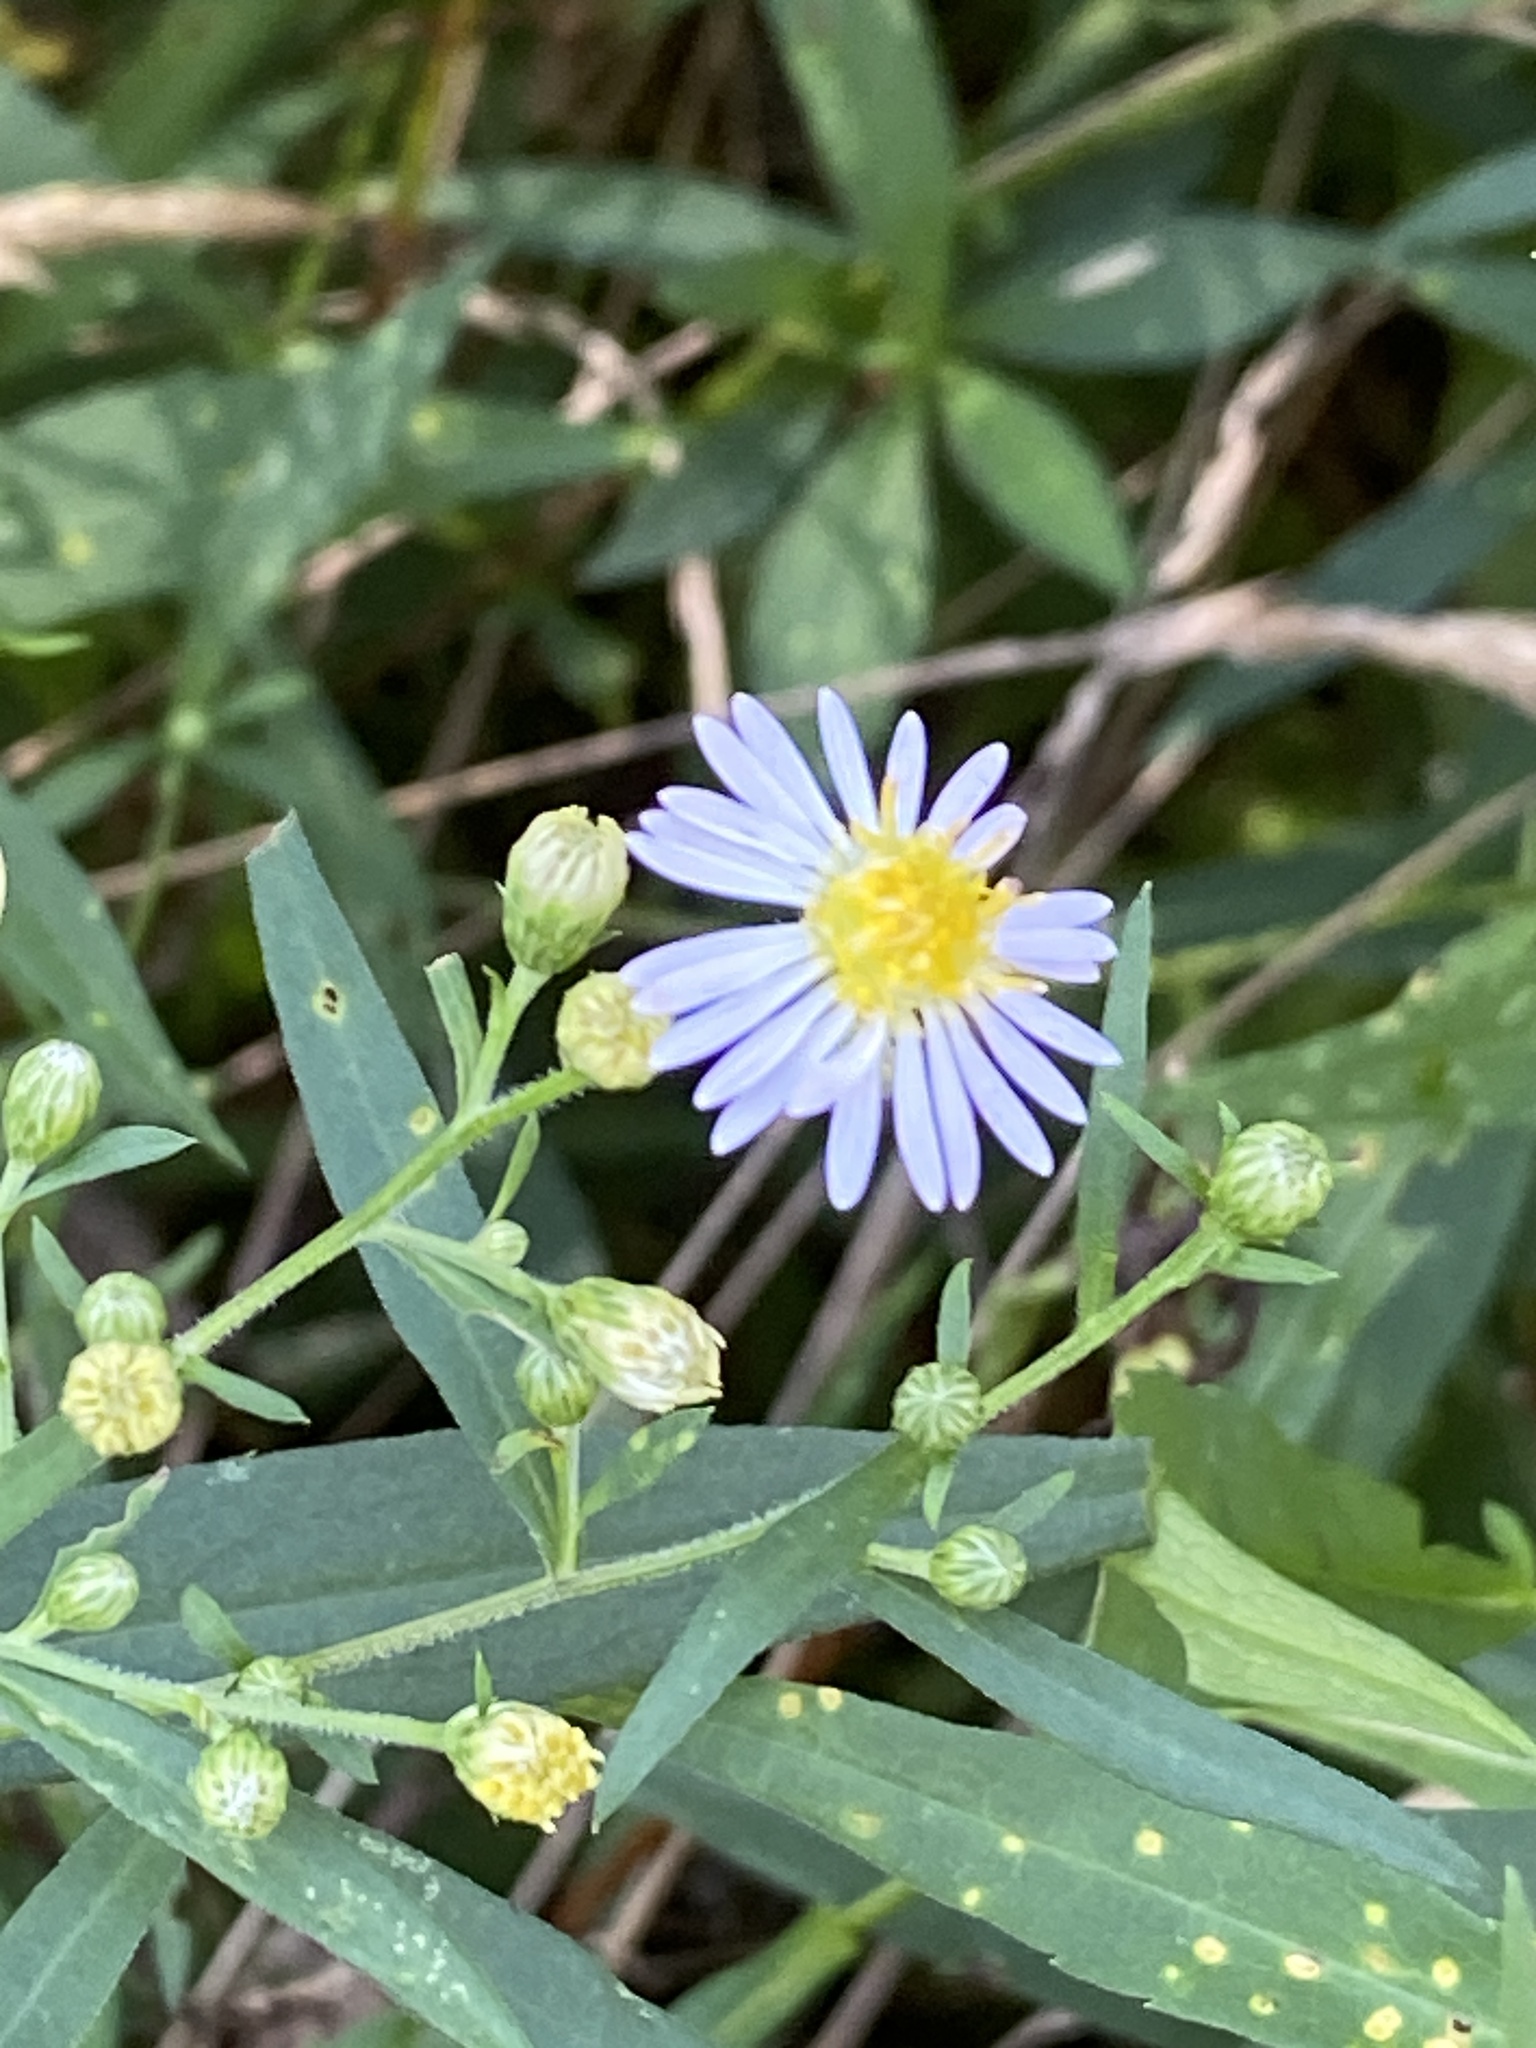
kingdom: Plantae
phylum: Tracheophyta
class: Magnoliopsida
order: Asterales
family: Asteraceae
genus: Symphyotrichum
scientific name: Symphyotrichum lanceolatum
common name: Panicled aster
